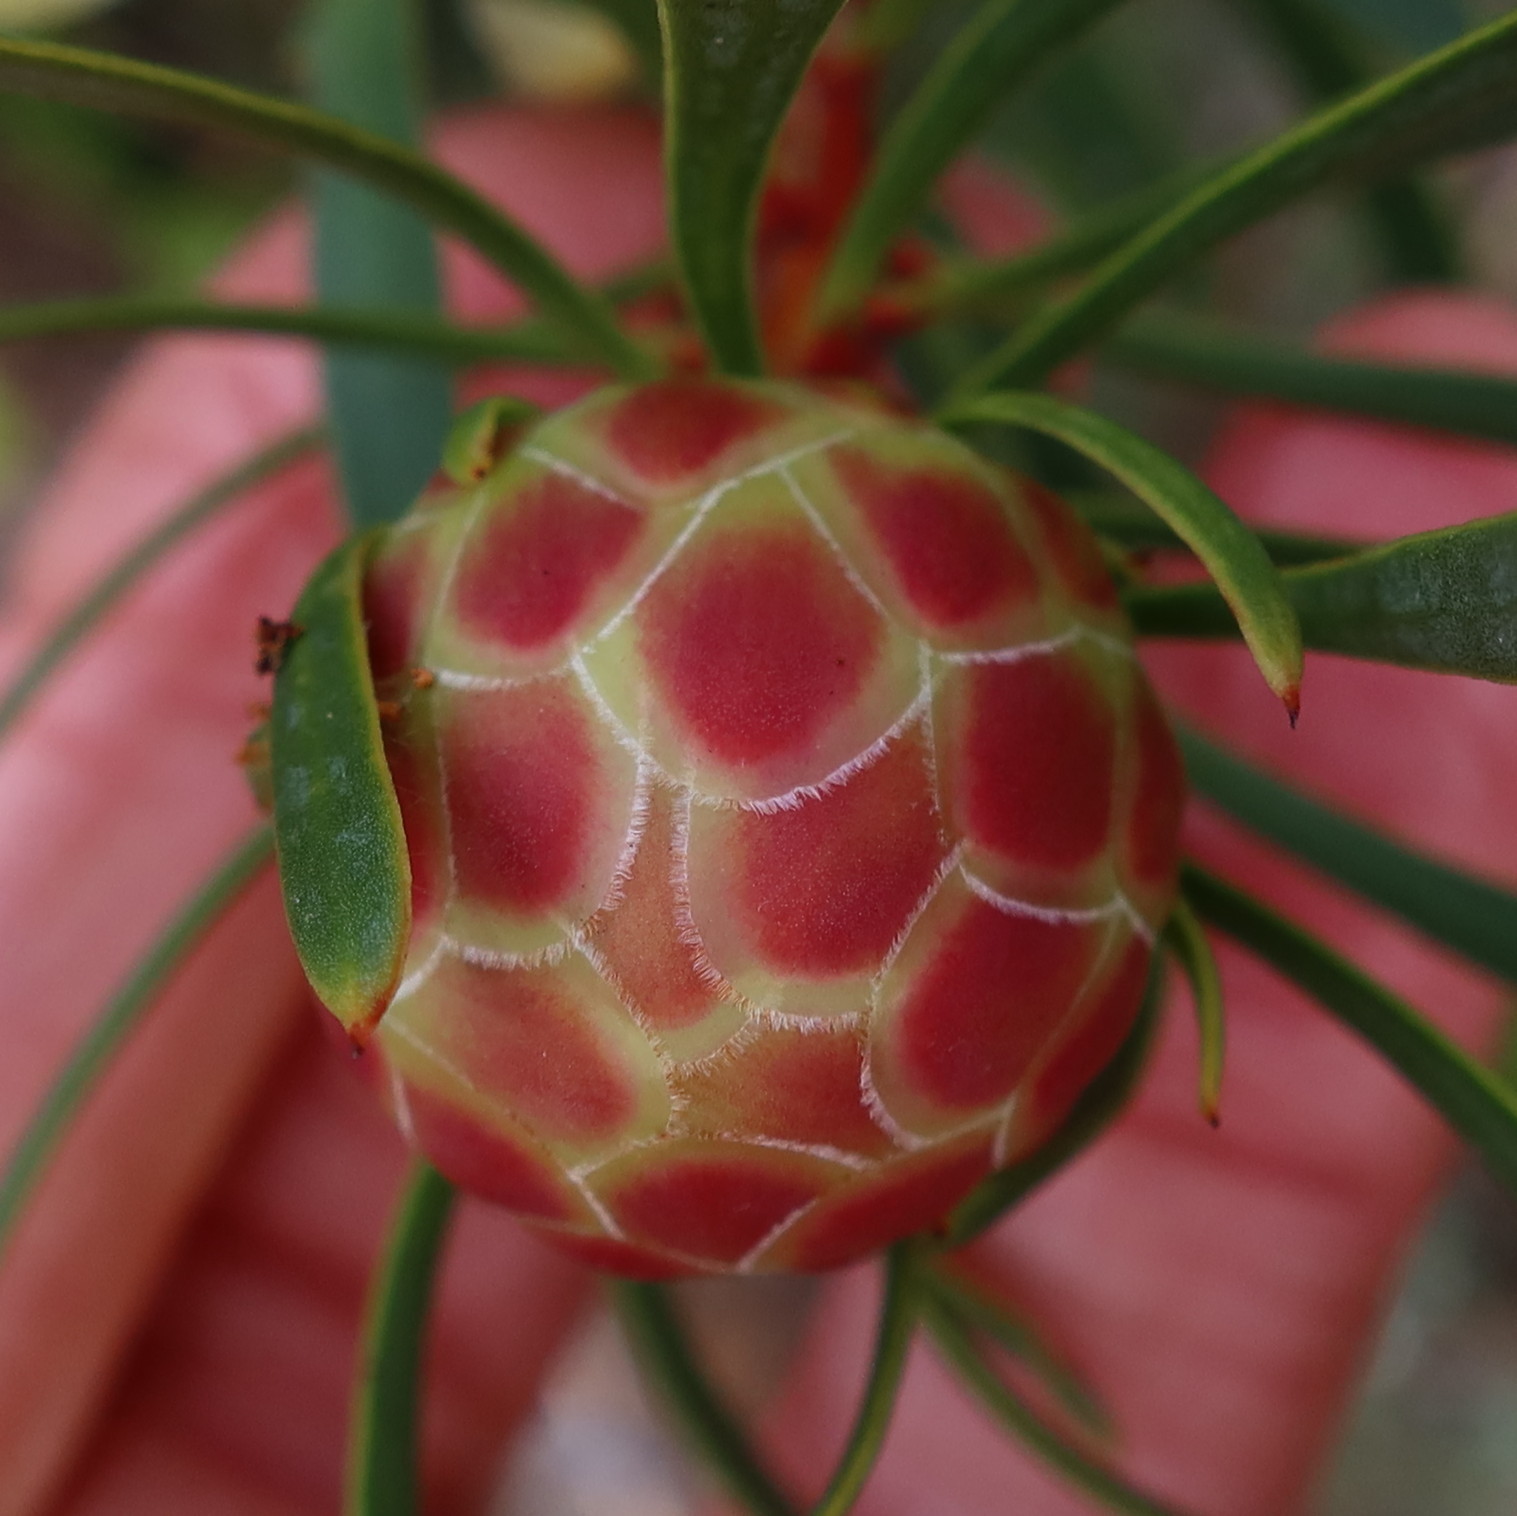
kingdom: Plantae
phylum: Tracheophyta
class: Magnoliopsida
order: Proteales
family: Proteaceae
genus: Protea
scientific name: Protea scolymocephala
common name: Thistle sugarbush
